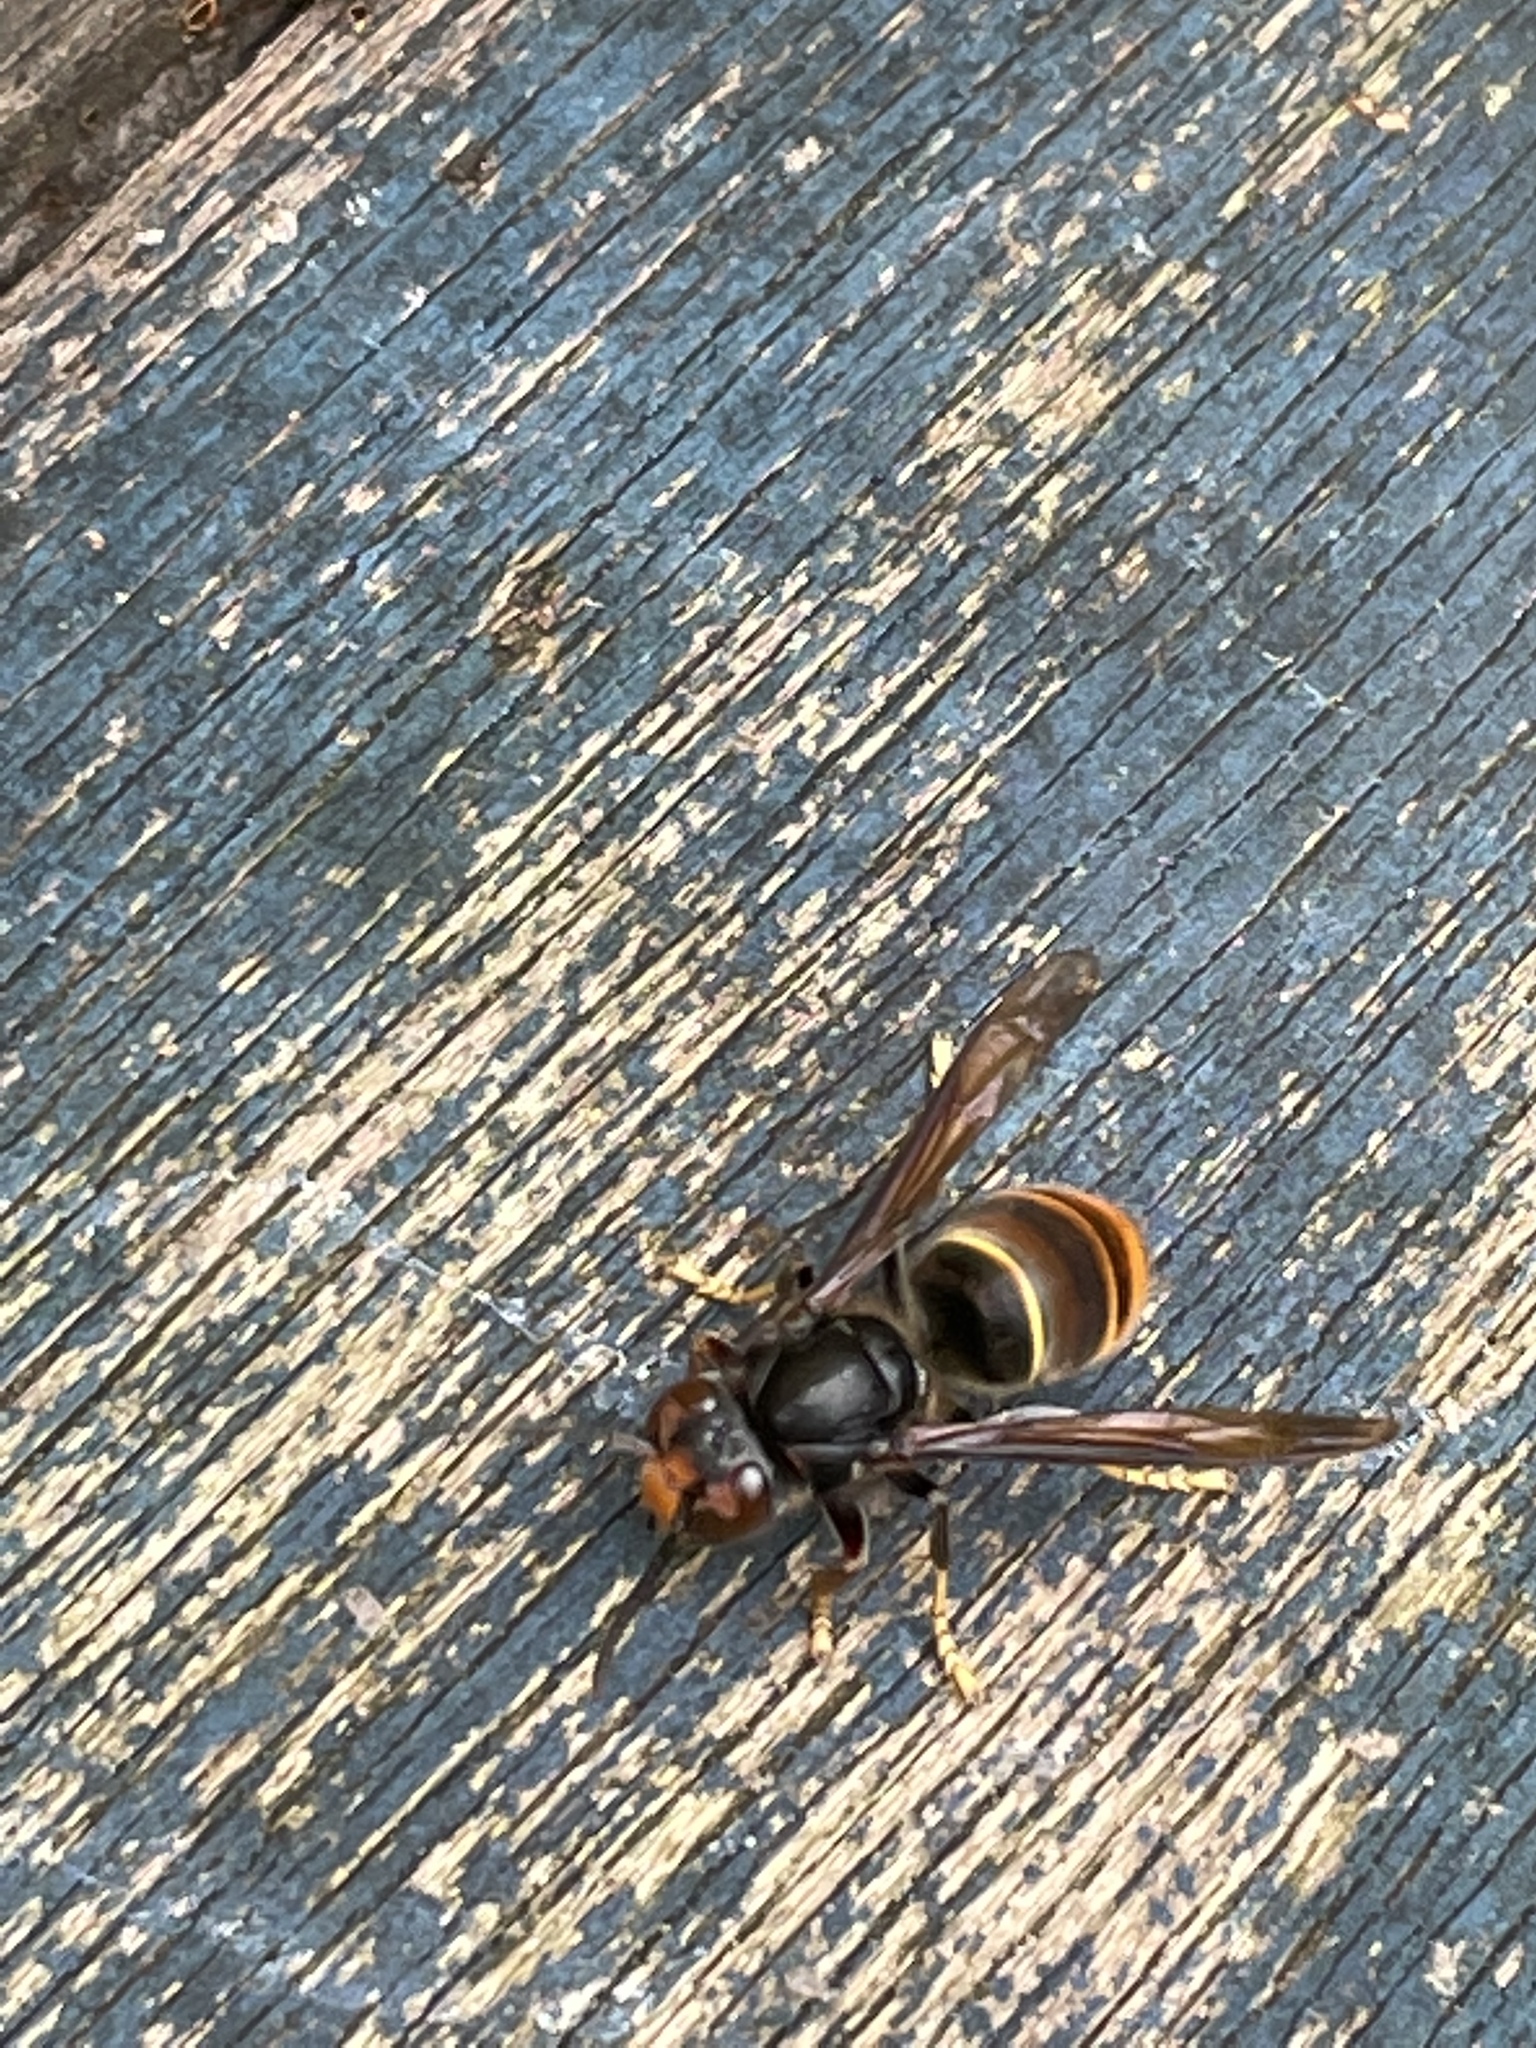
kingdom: Animalia
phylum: Arthropoda
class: Insecta
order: Hymenoptera
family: Vespidae
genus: Vespa
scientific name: Vespa velutina
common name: Asian hornet
